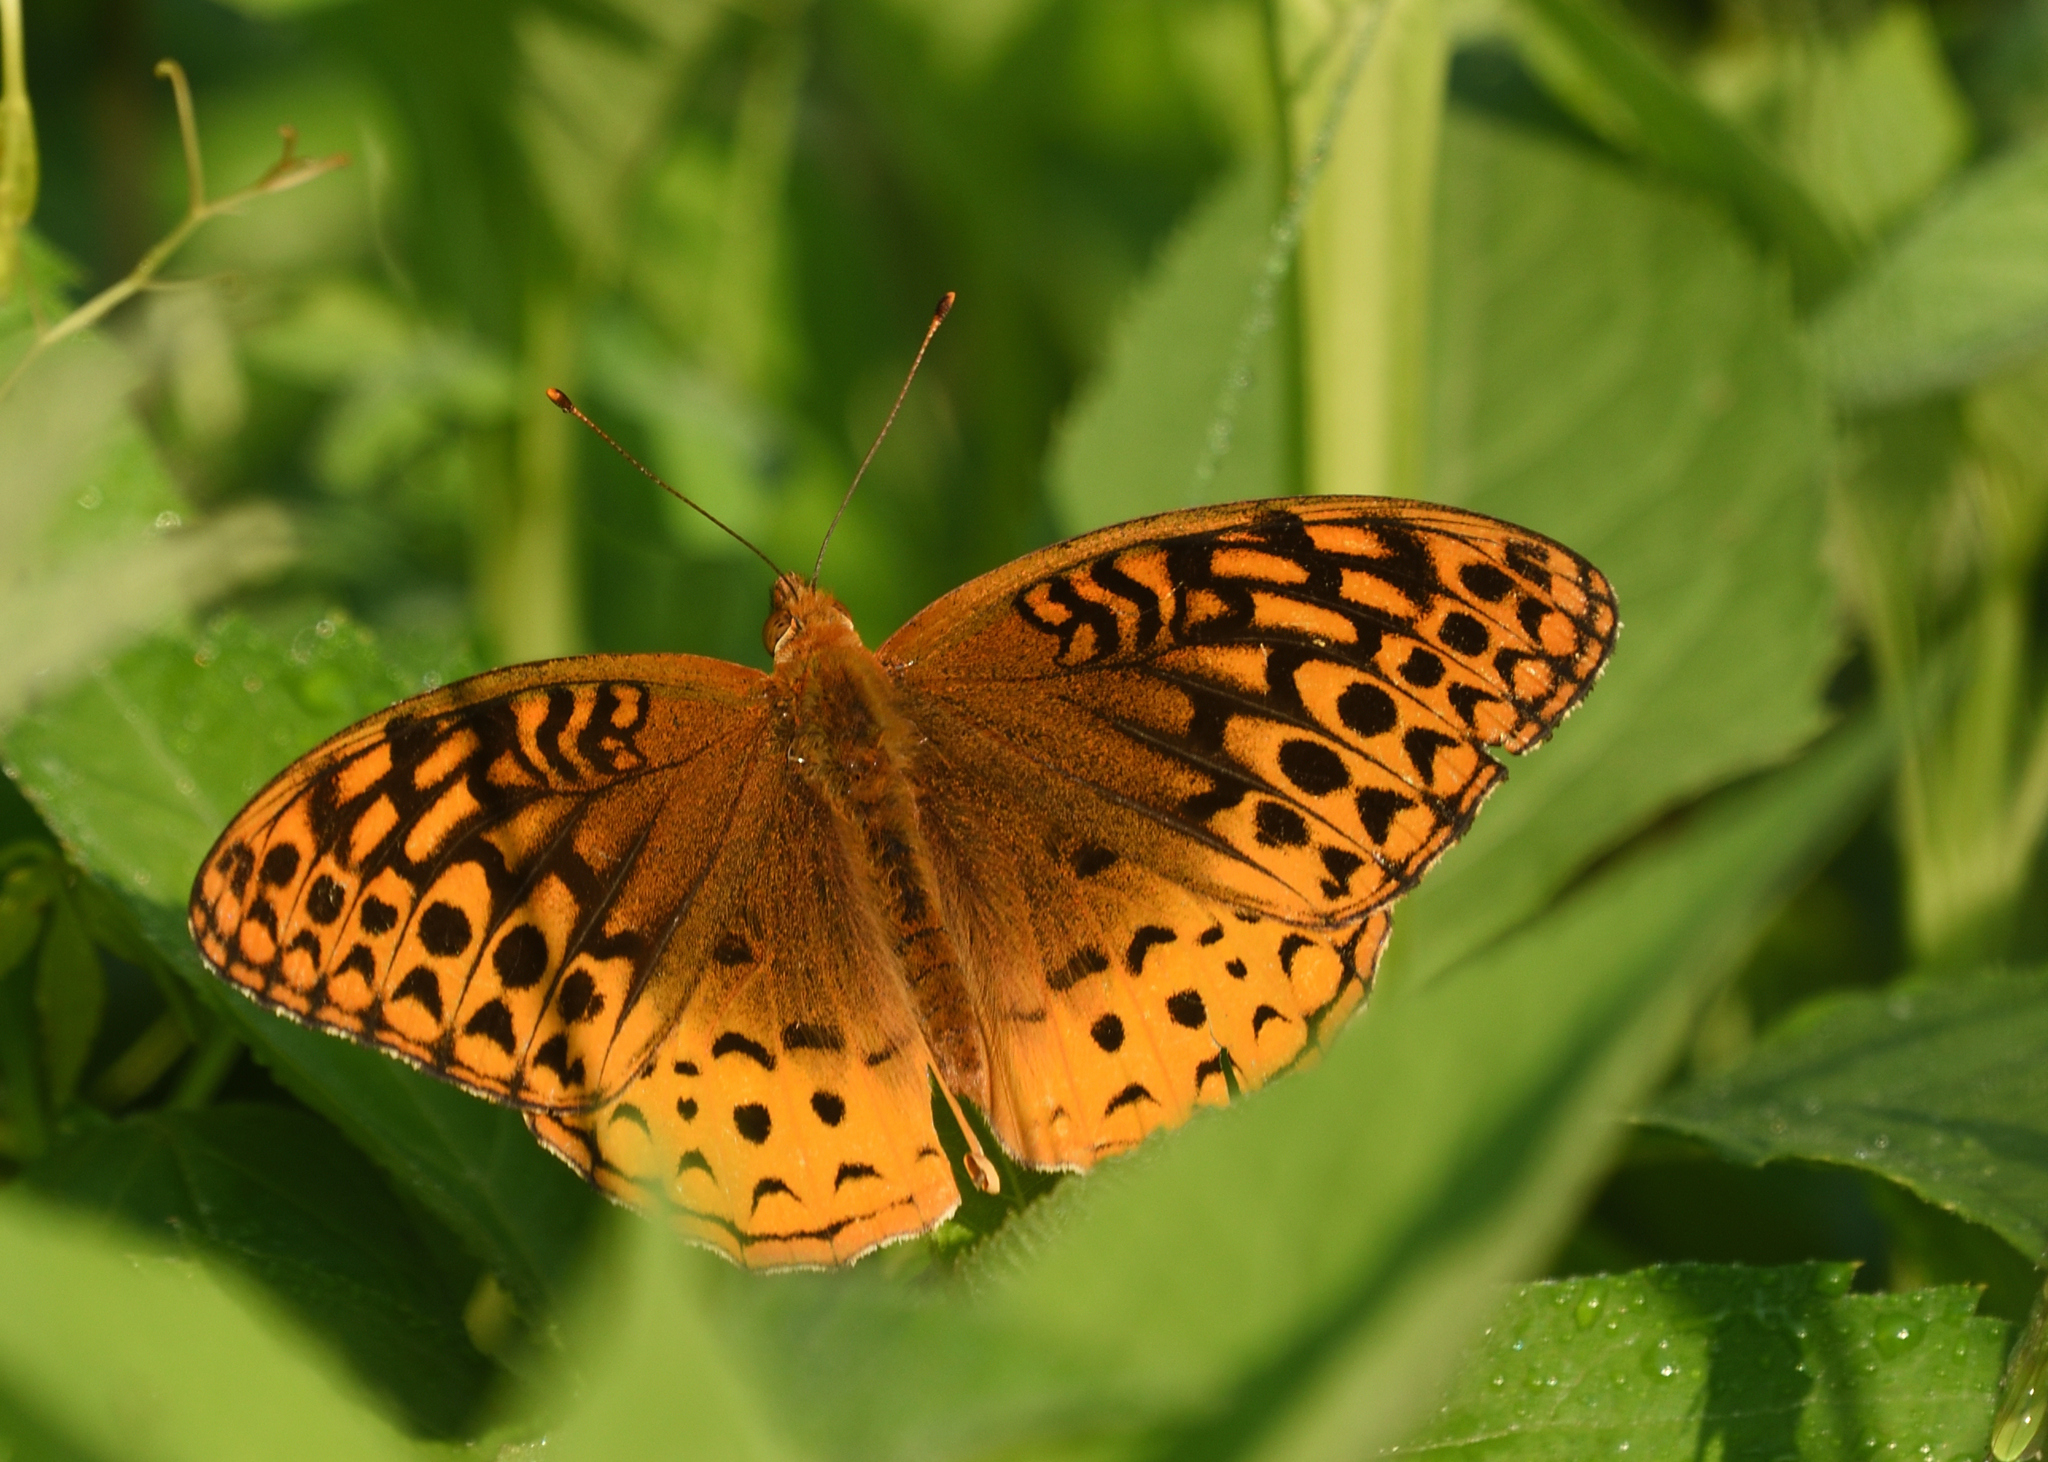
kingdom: Animalia
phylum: Arthropoda
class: Insecta
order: Lepidoptera
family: Nymphalidae
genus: Speyeria
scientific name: Speyeria cybele
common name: Great spangled fritillary
